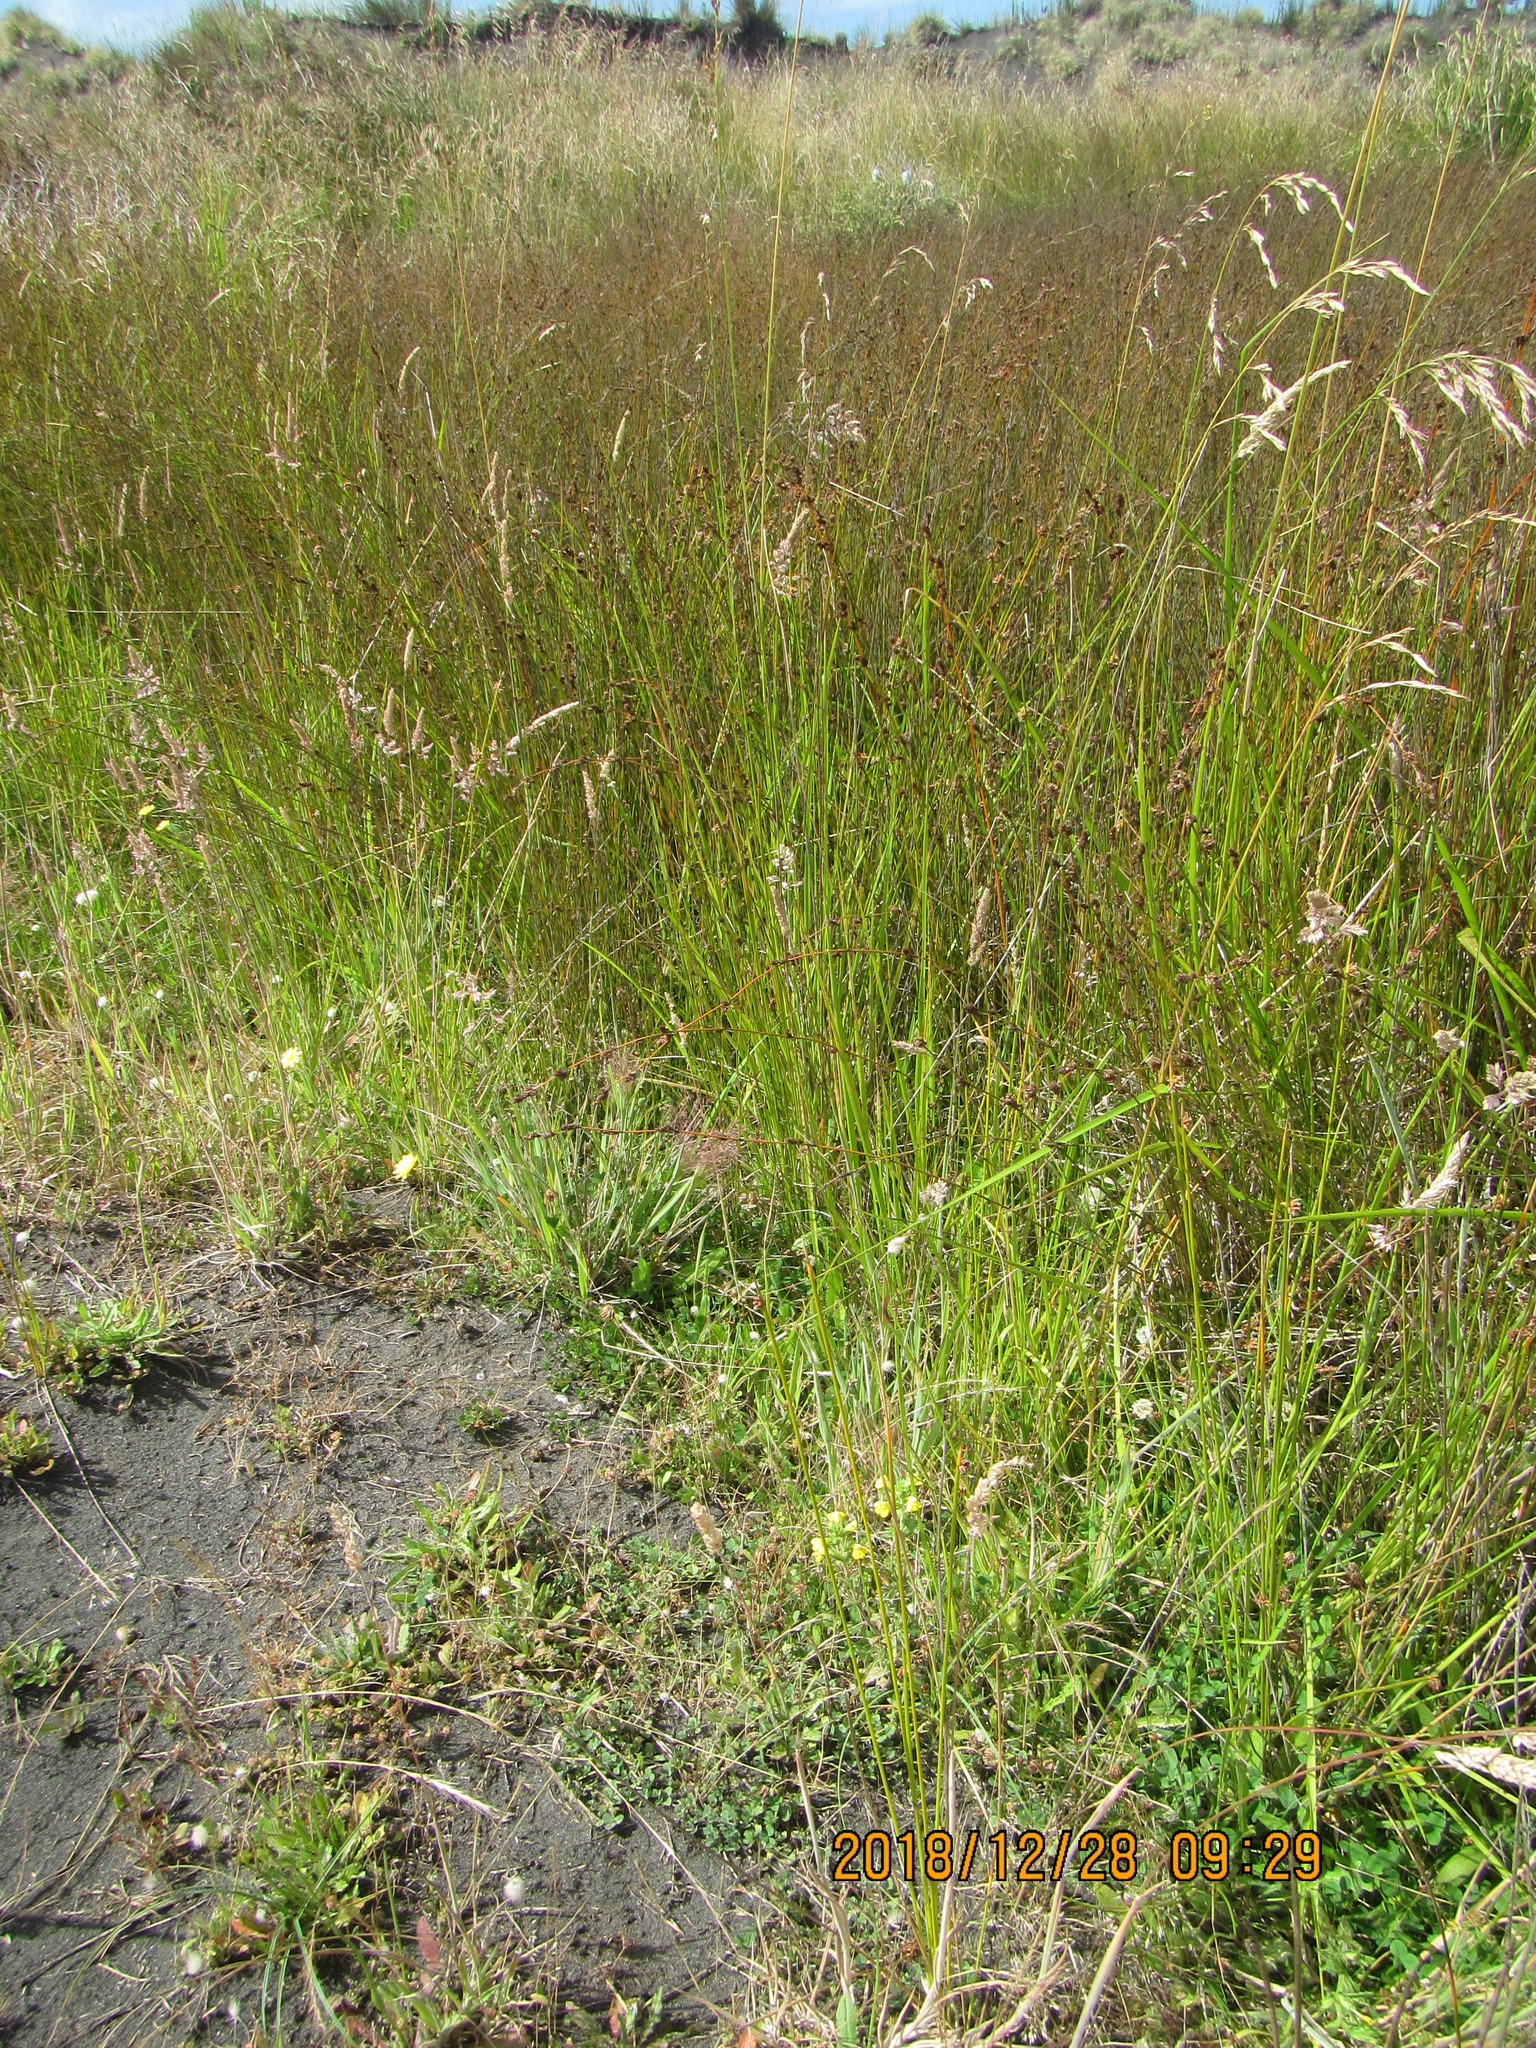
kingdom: Plantae
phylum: Tracheophyta
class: Magnoliopsida
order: Lamiales
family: Orobanchaceae
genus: Bellardia
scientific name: Bellardia viscosa
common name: Sticky parentucellia
